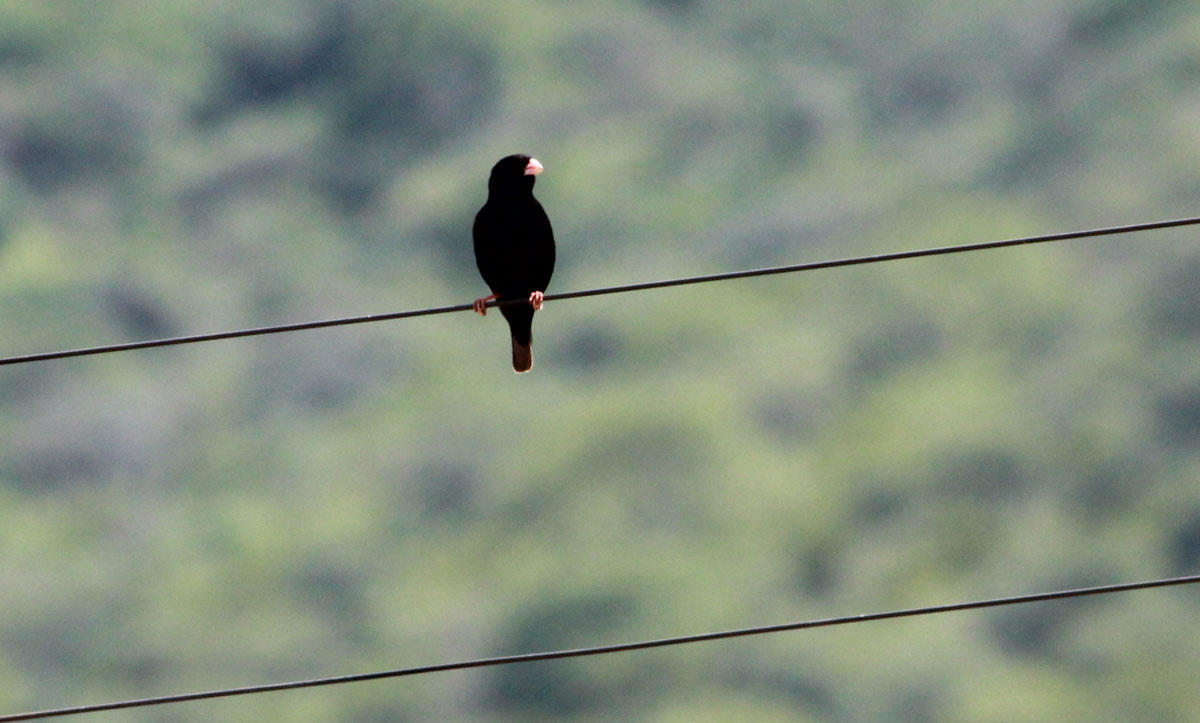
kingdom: Animalia
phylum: Chordata
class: Aves
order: Passeriformes
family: Viduidae
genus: Vidua
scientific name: Vidua funerea
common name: Dusky indigobird
